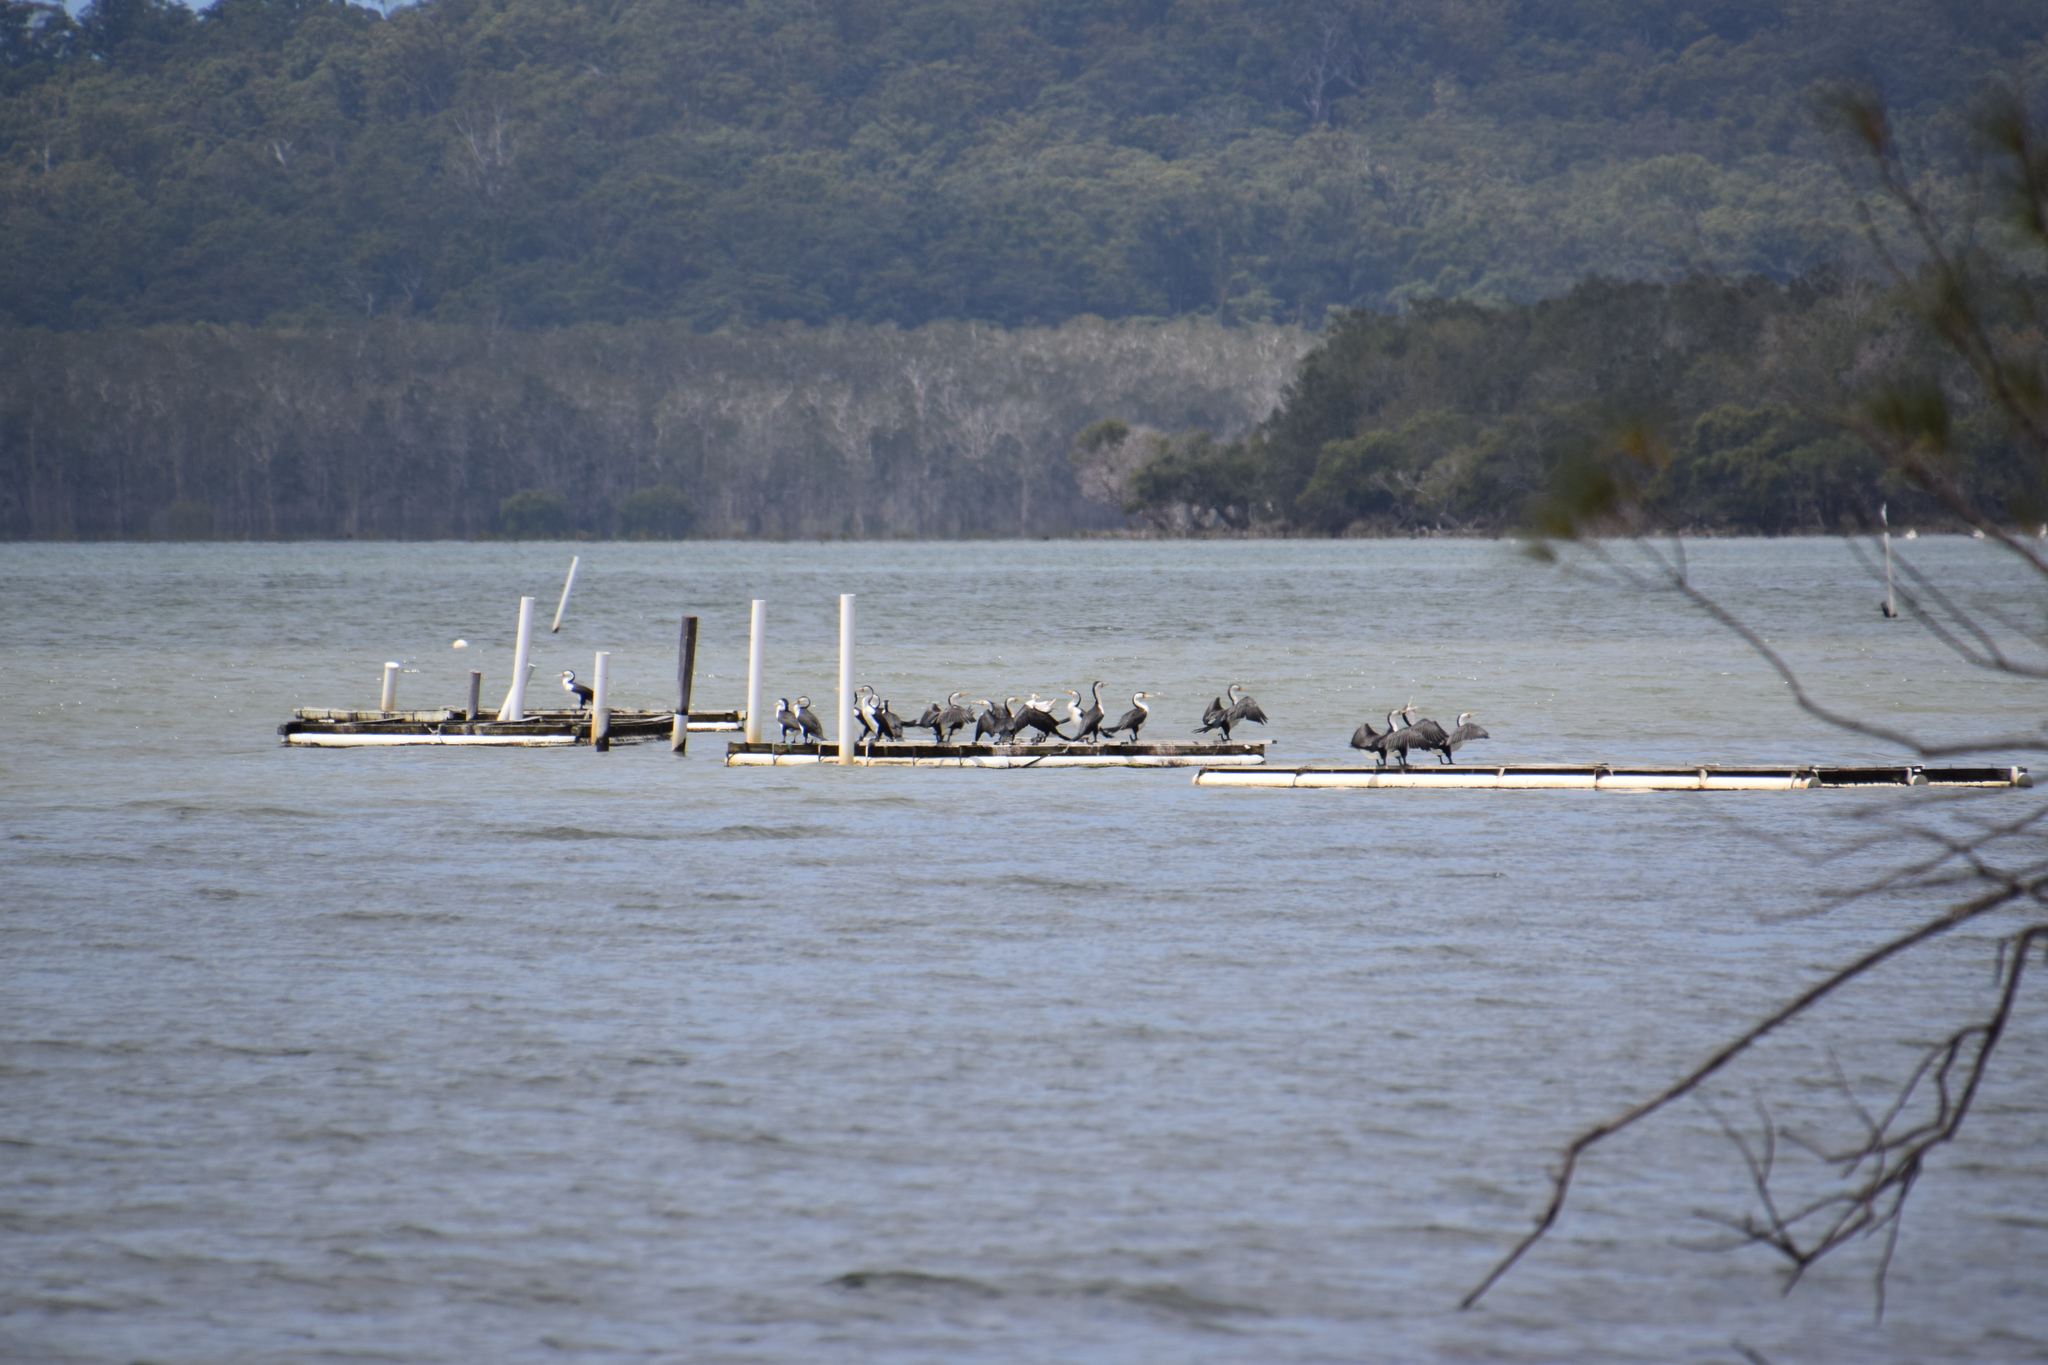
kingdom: Animalia
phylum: Chordata
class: Aves
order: Suliformes
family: Phalacrocoracidae
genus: Phalacrocorax
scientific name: Phalacrocorax varius
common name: Pied cormorant
